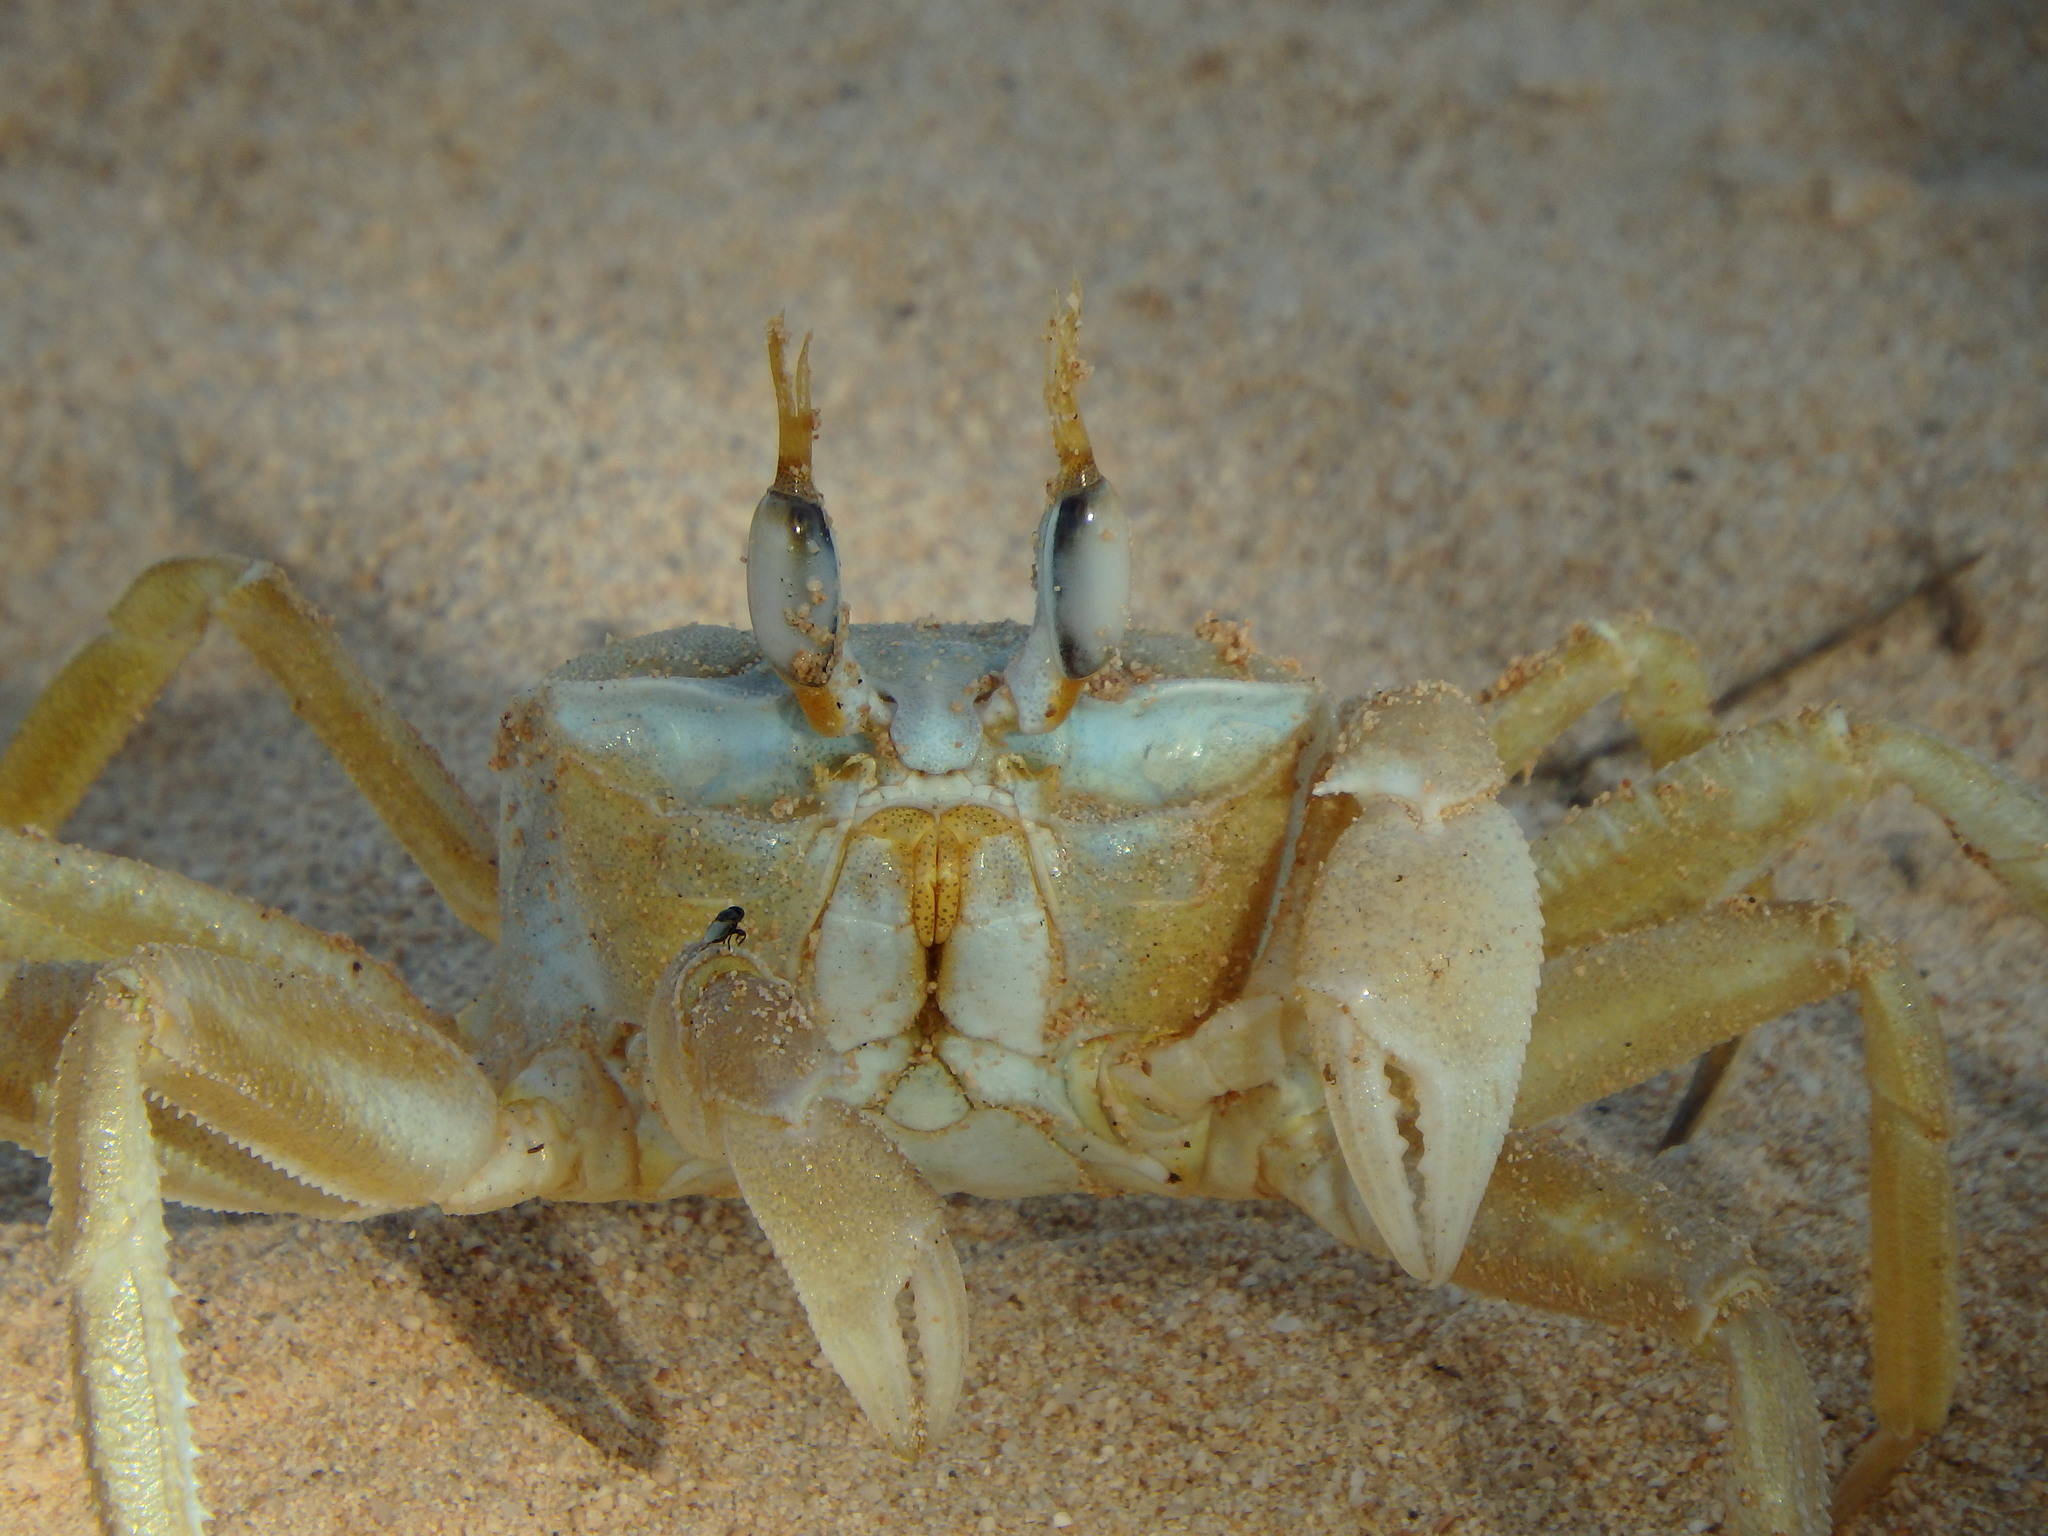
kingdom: Animalia
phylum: Arthropoda
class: Malacostraca
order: Decapoda
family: Ocypodidae
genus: Ocypode
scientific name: Ocypode cursor
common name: Tufted ghost crab
